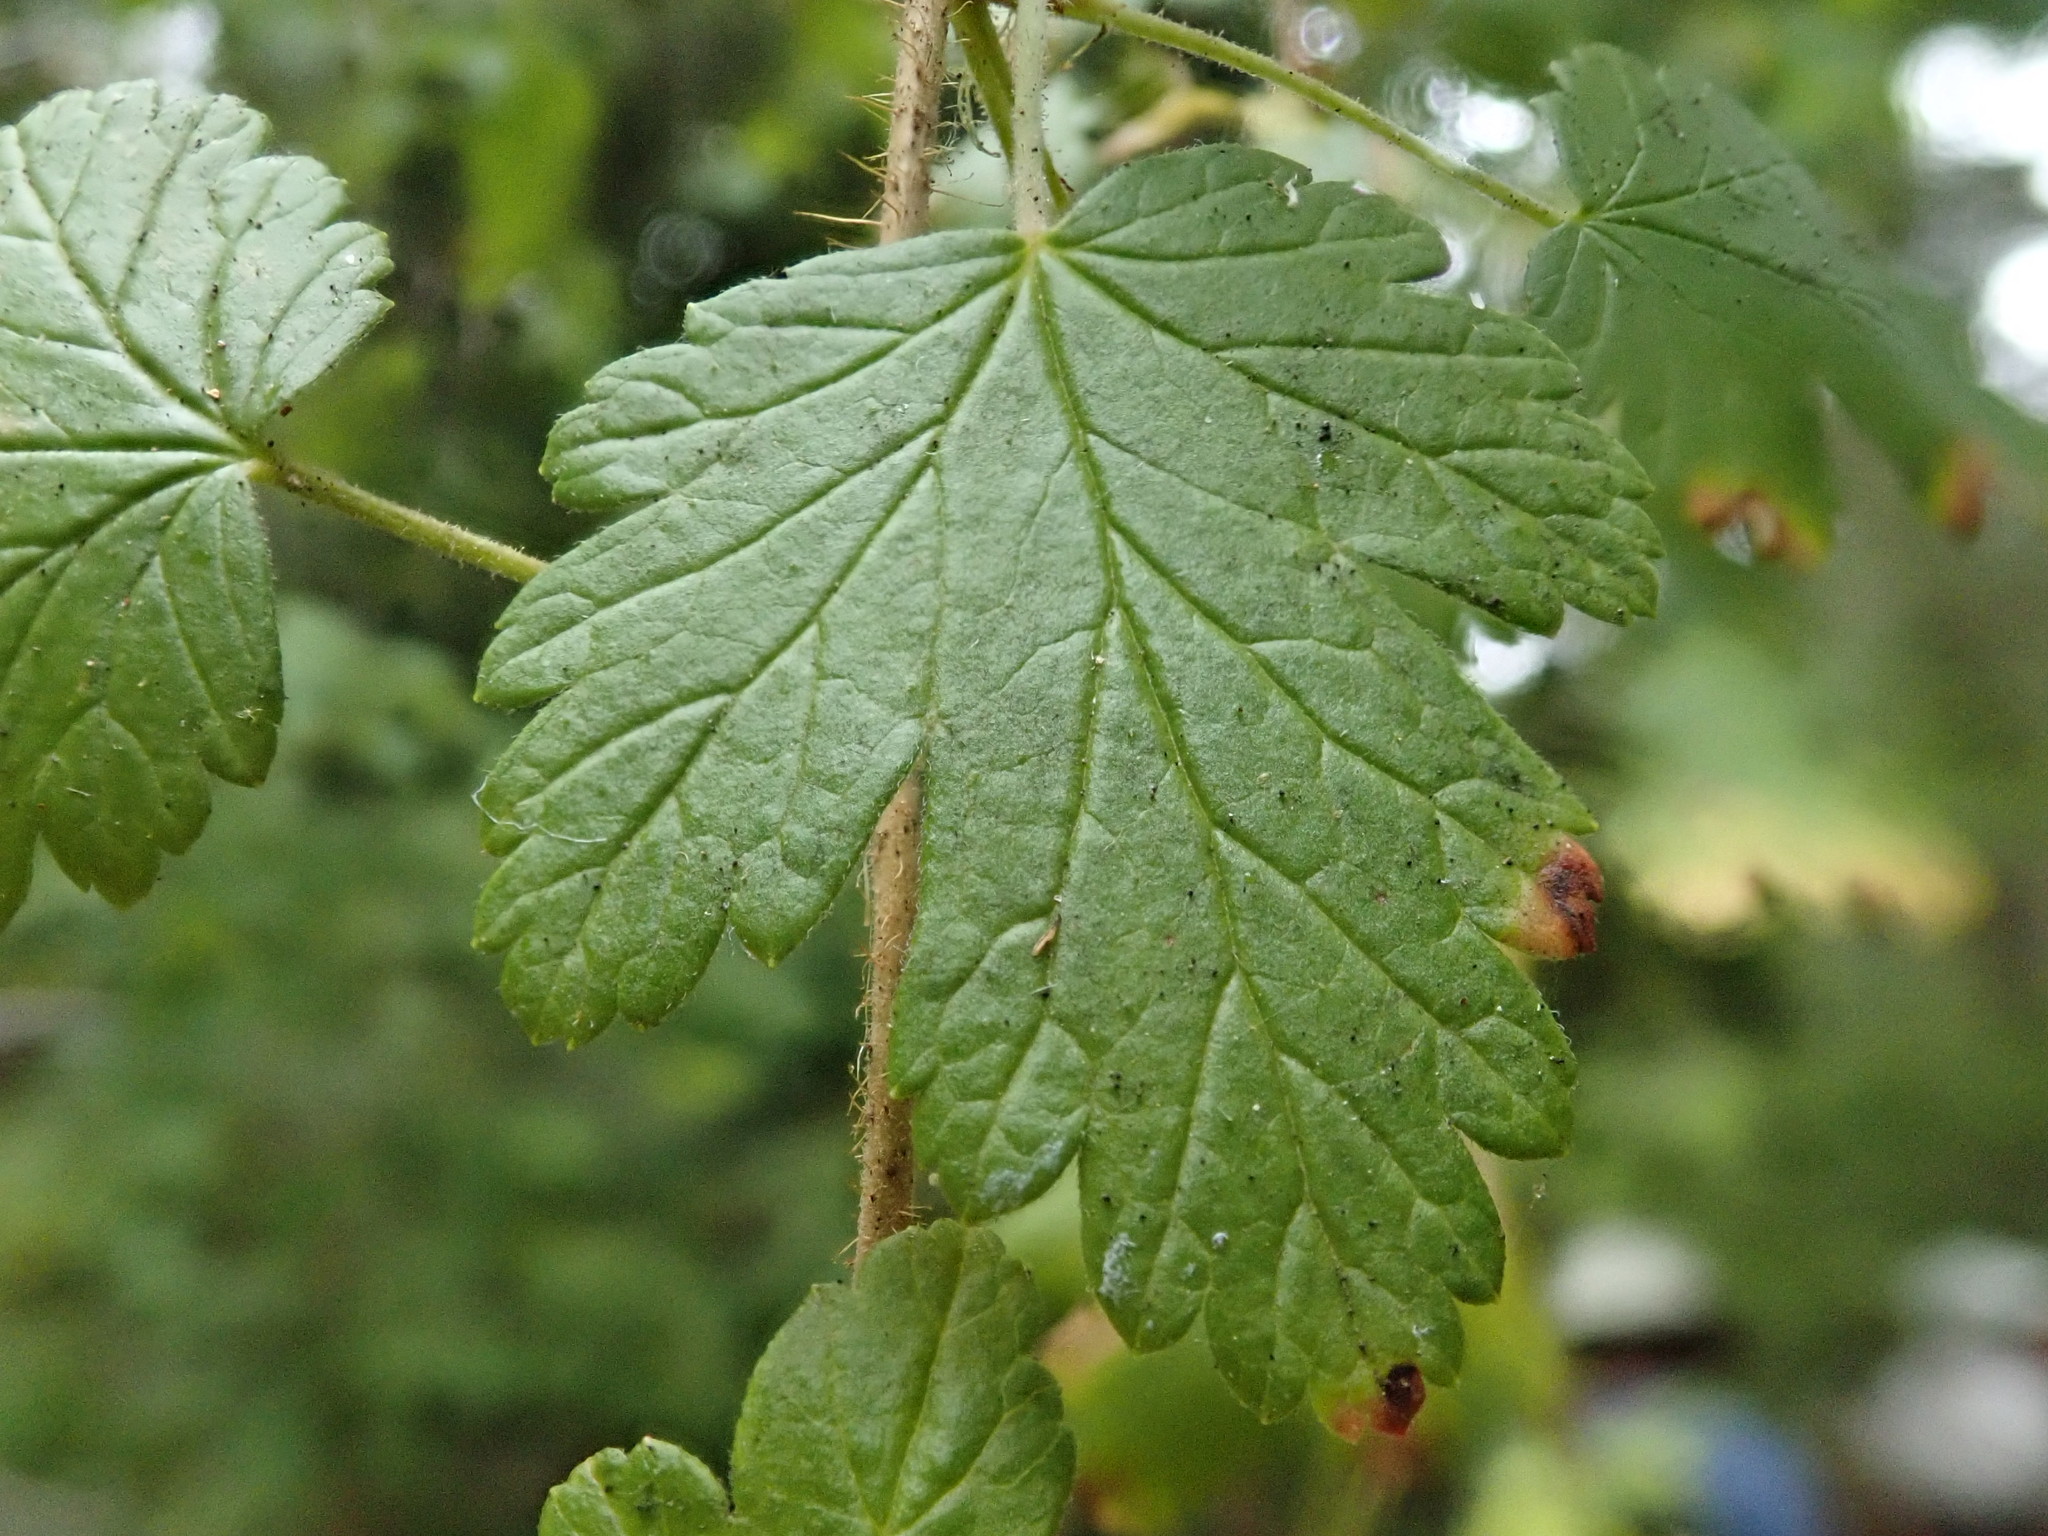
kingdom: Plantae
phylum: Tracheophyta
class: Magnoliopsida
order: Saxifragales
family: Grossulariaceae
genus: Ribes
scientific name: Ribes menziesii
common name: Canyon gooseberry
